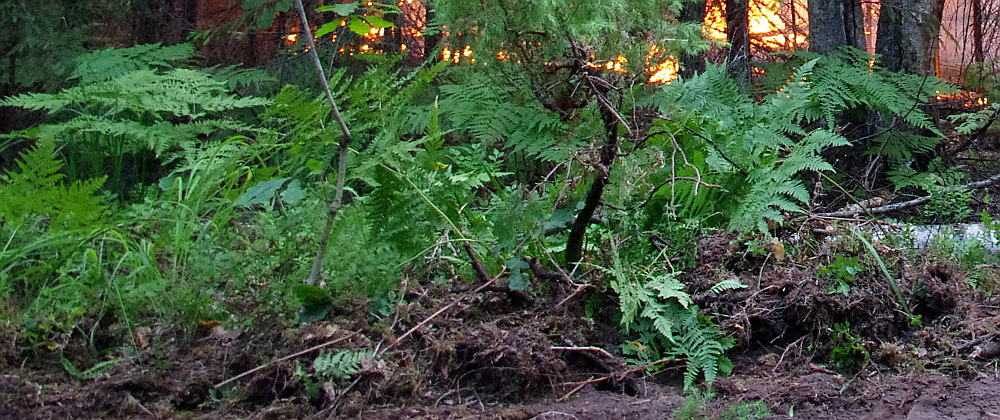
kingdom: Plantae
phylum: Tracheophyta
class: Polypodiopsida
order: Polypodiales
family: Dennstaedtiaceae
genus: Pteridium
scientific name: Pteridium aquilinum
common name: Bracken
